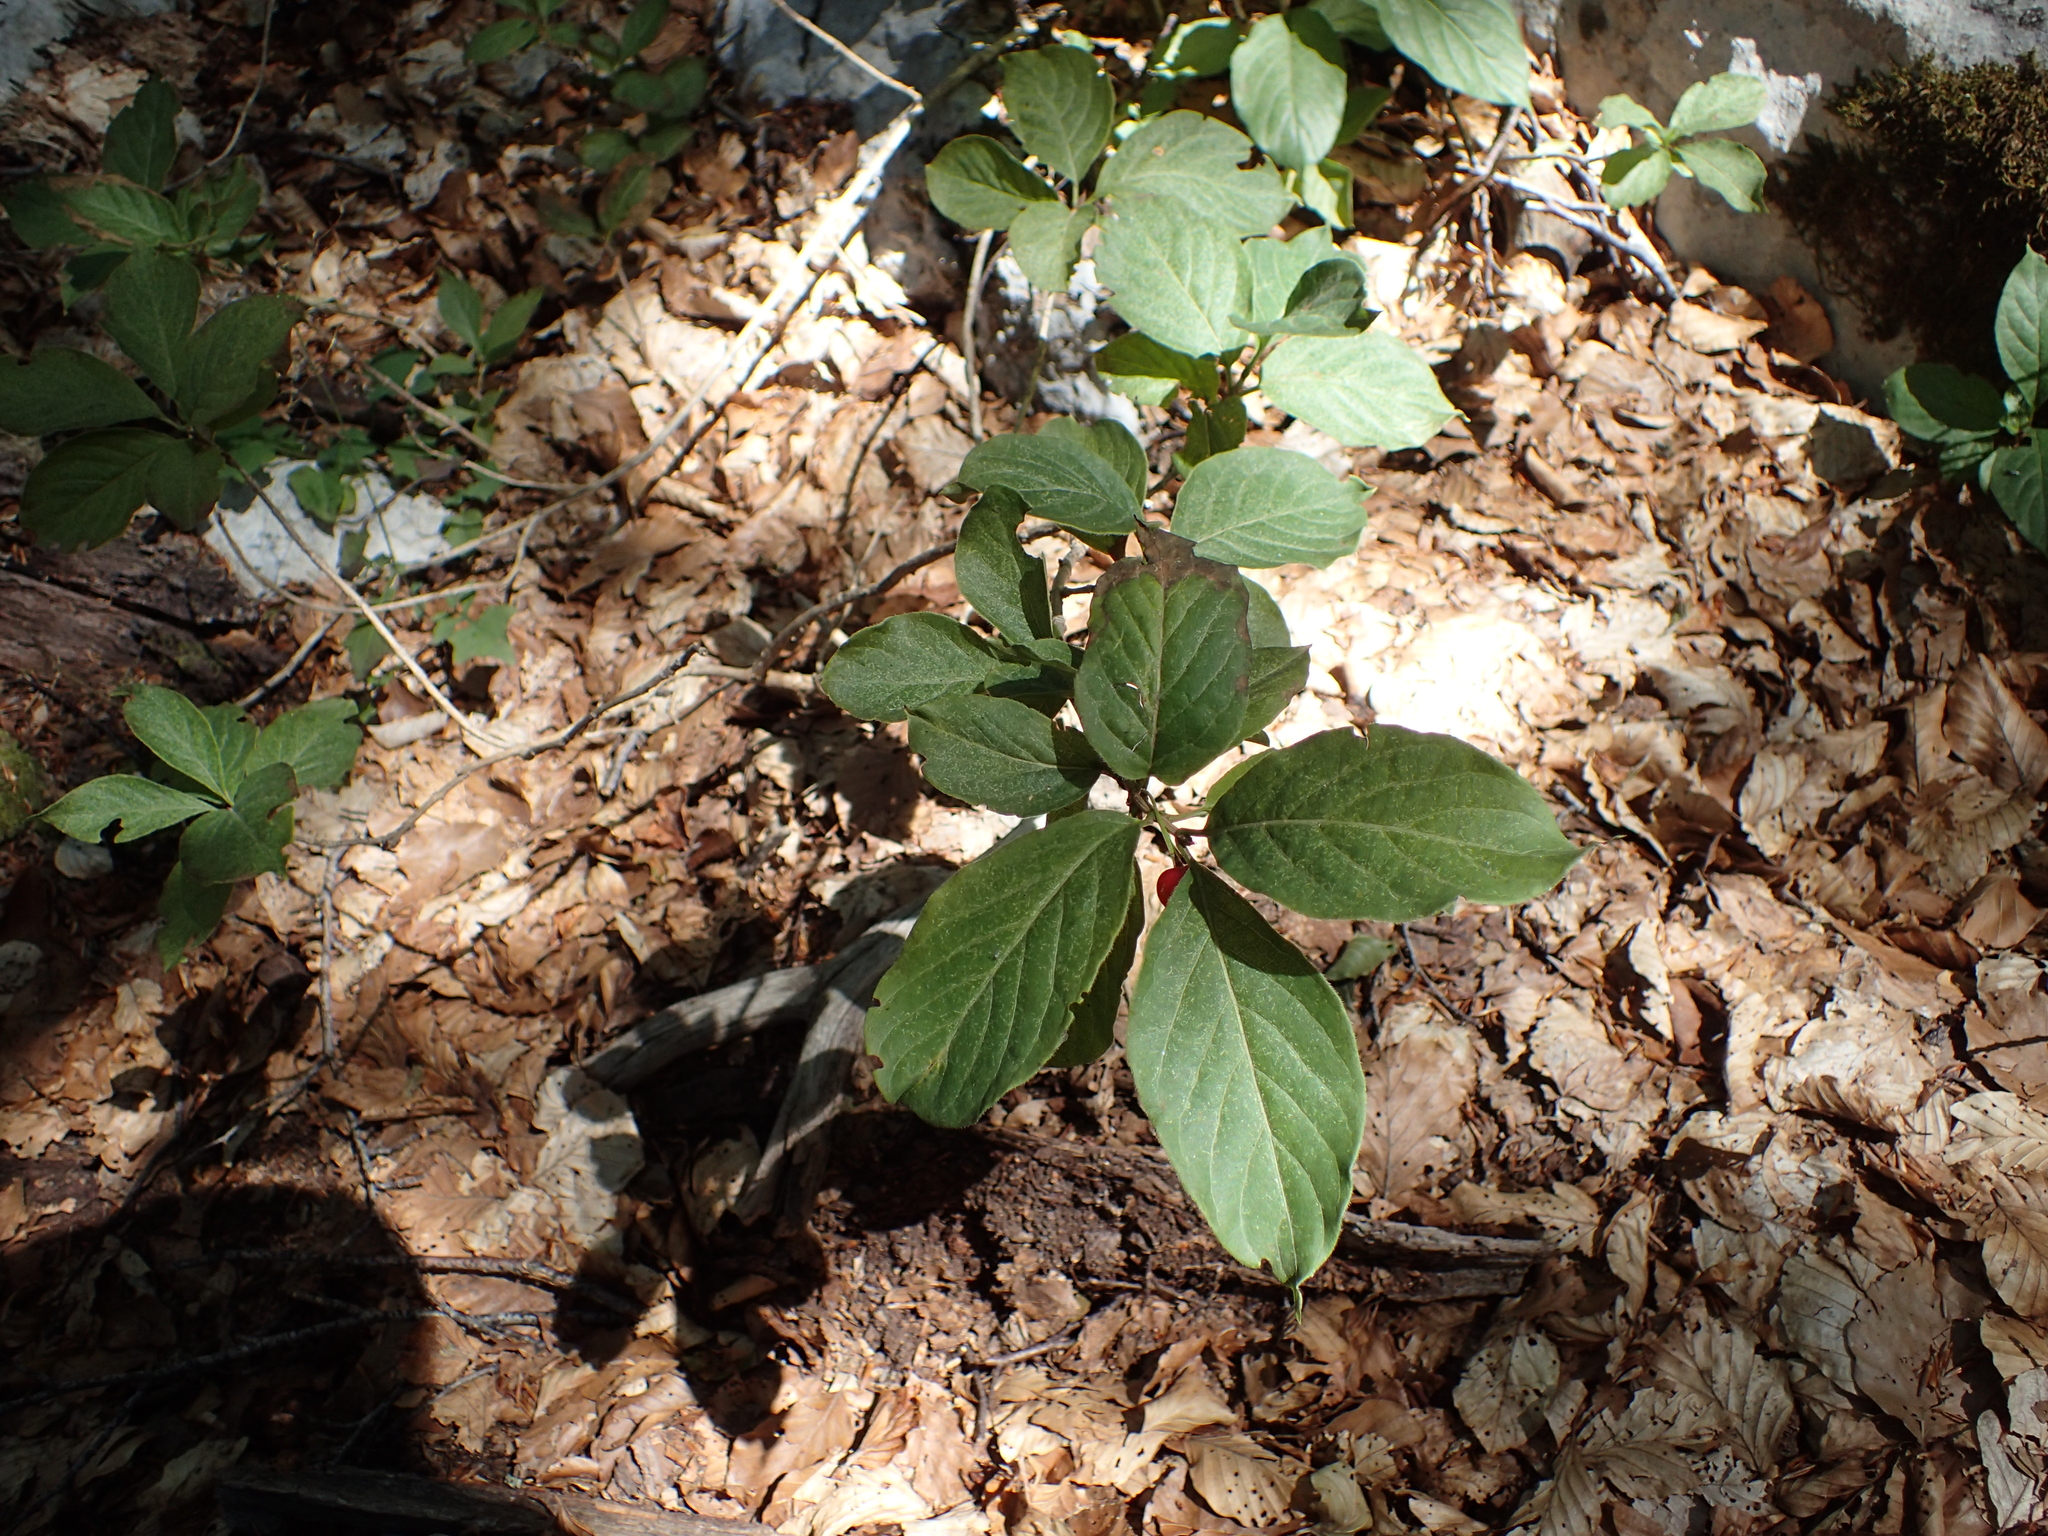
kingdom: Plantae
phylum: Tracheophyta
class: Magnoliopsida
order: Dipsacales
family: Caprifoliaceae
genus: Lonicera
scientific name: Lonicera alpigena
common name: Alpine honeysuckle
